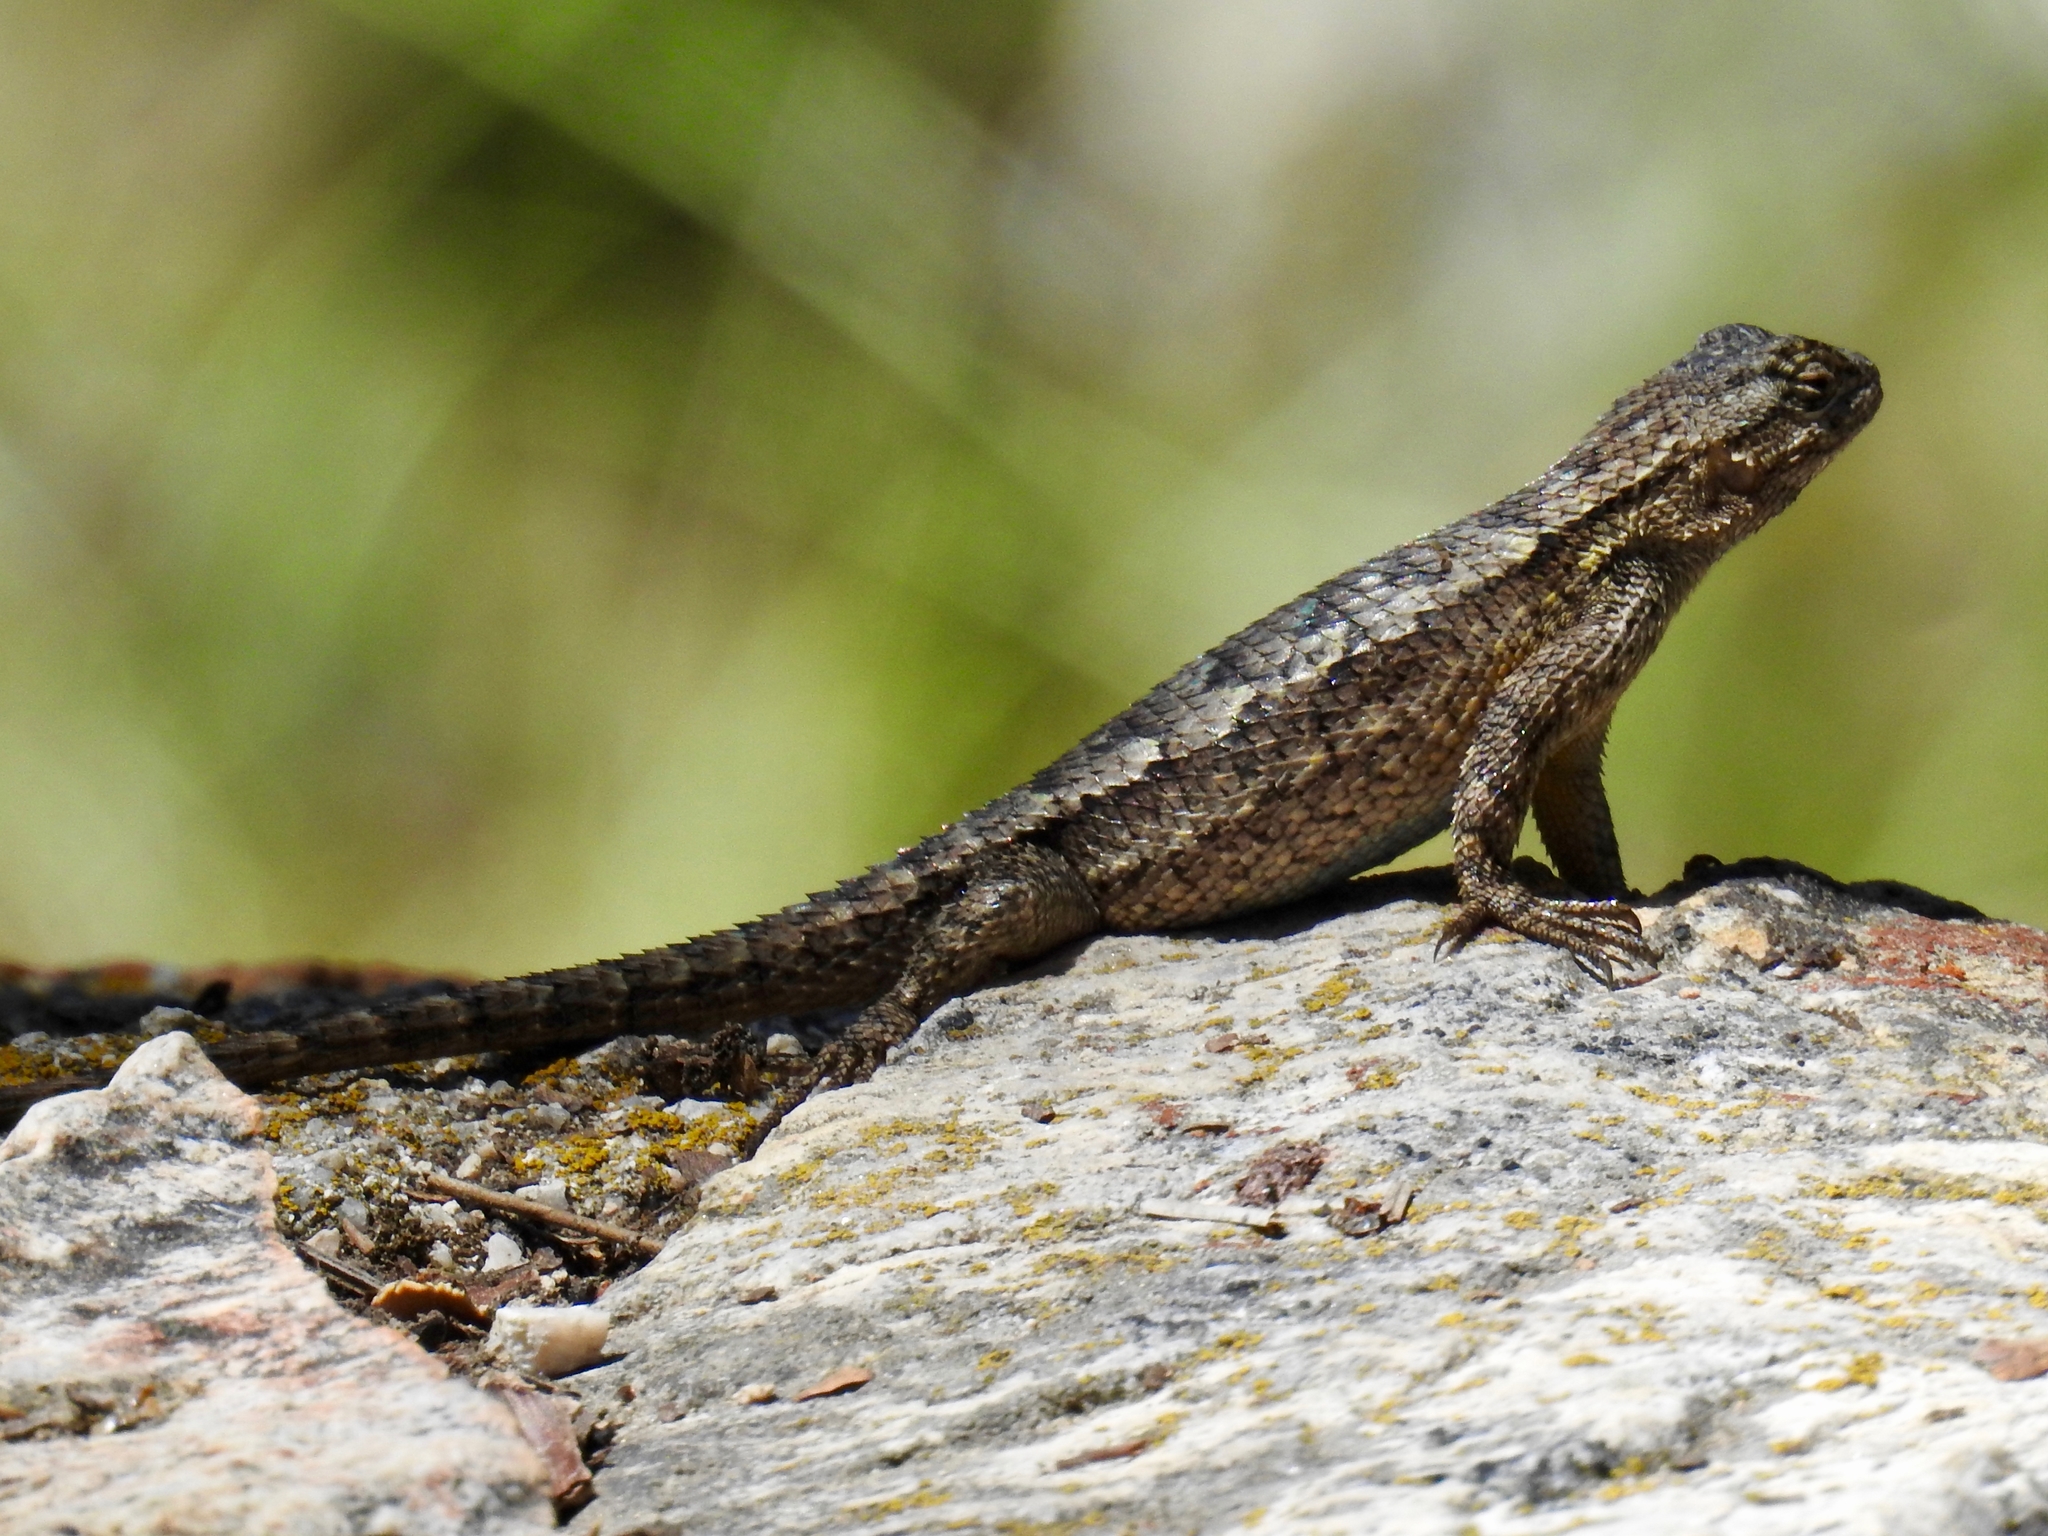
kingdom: Animalia
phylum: Chordata
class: Squamata
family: Phrynosomatidae
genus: Sceloporus
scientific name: Sceloporus occidentalis
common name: Western fence lizard
